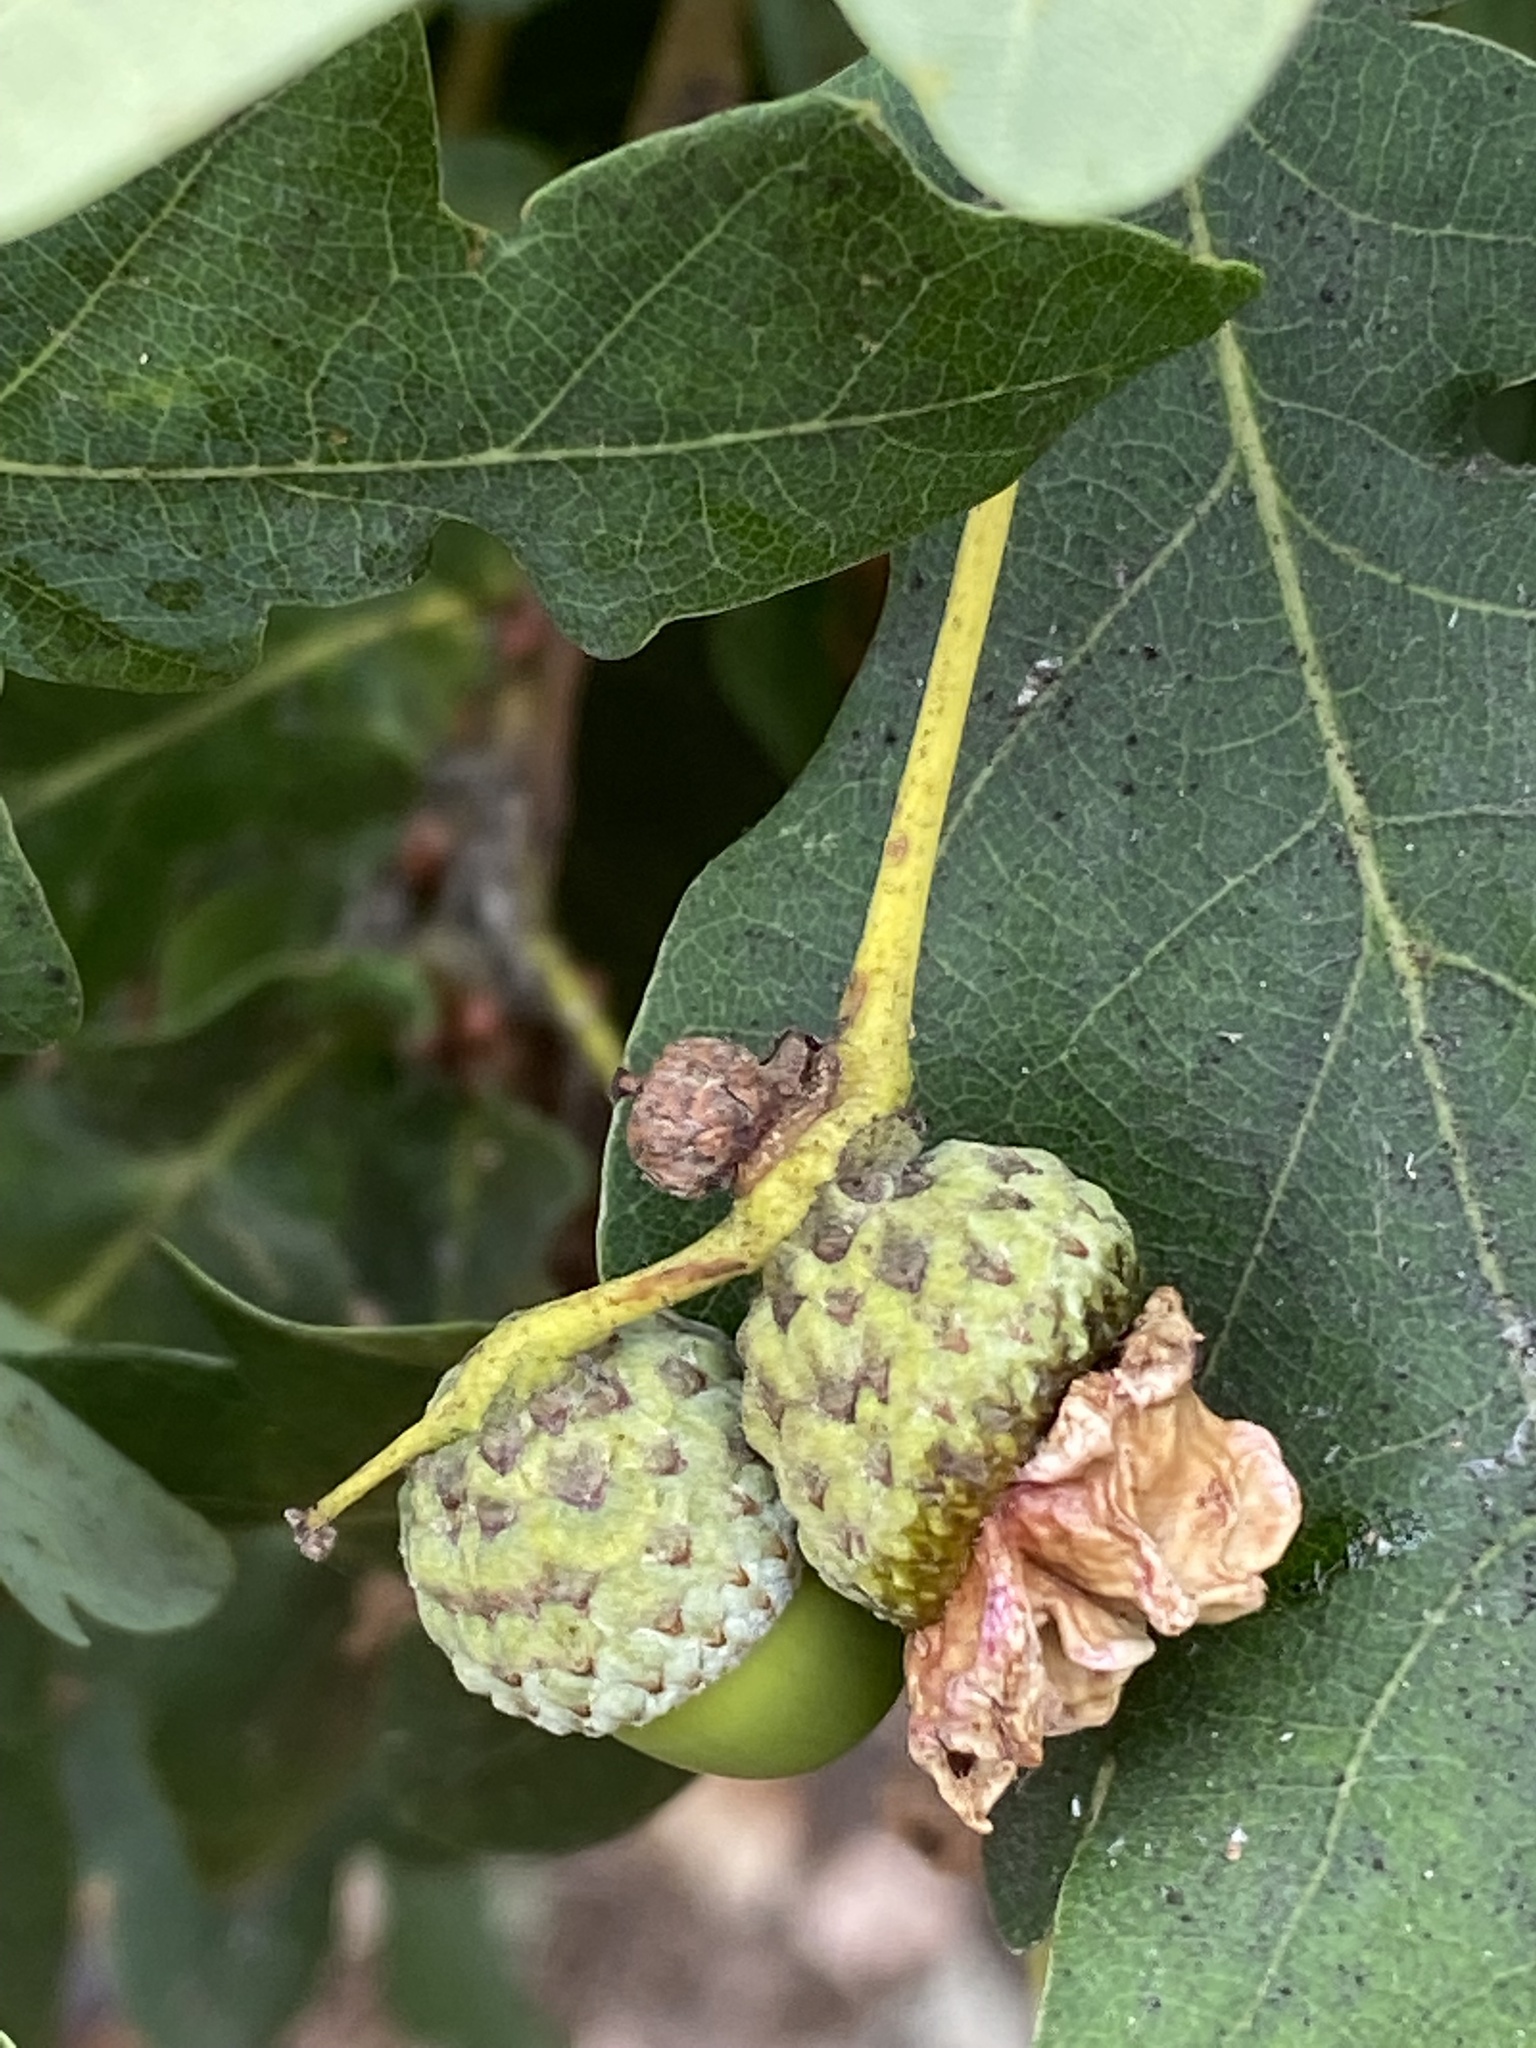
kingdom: Animalia
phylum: Arthropoda
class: Insecta
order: Hymenoptera
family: Cynipidae
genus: Andricus
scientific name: Andricus quercuscalicis
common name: Knopper gall
